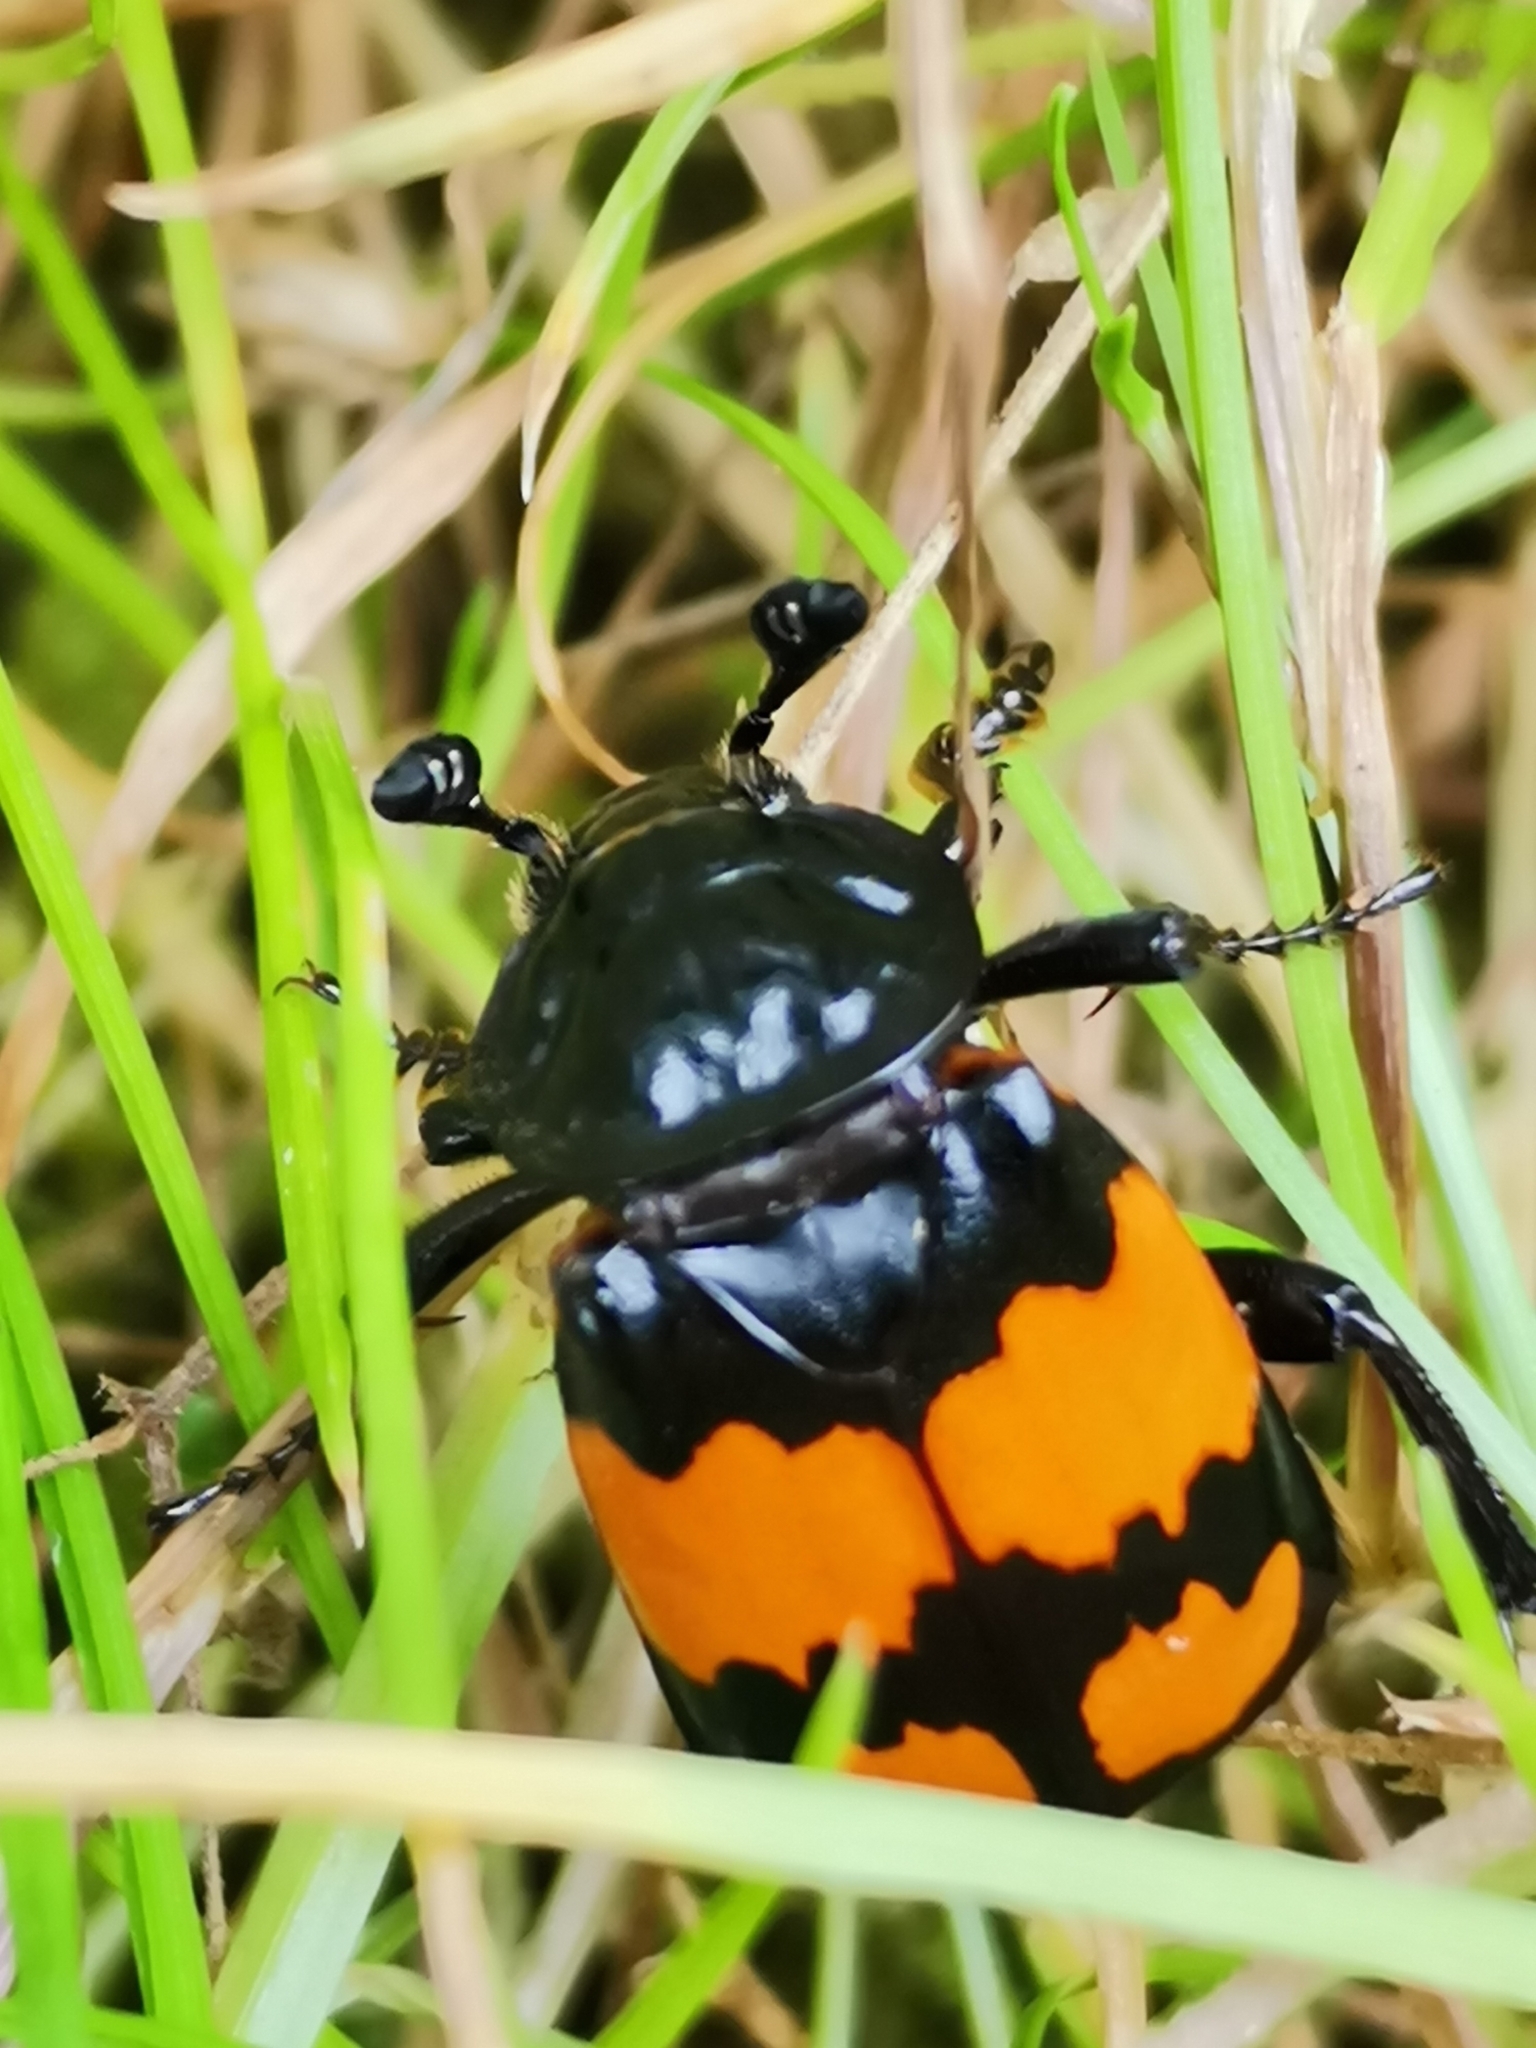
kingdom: Animalia
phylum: Arthropoda
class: Insecta
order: Coleoptera
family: Staphylinidae
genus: Nicrophorus
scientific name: Nicrophorus vespilloides
